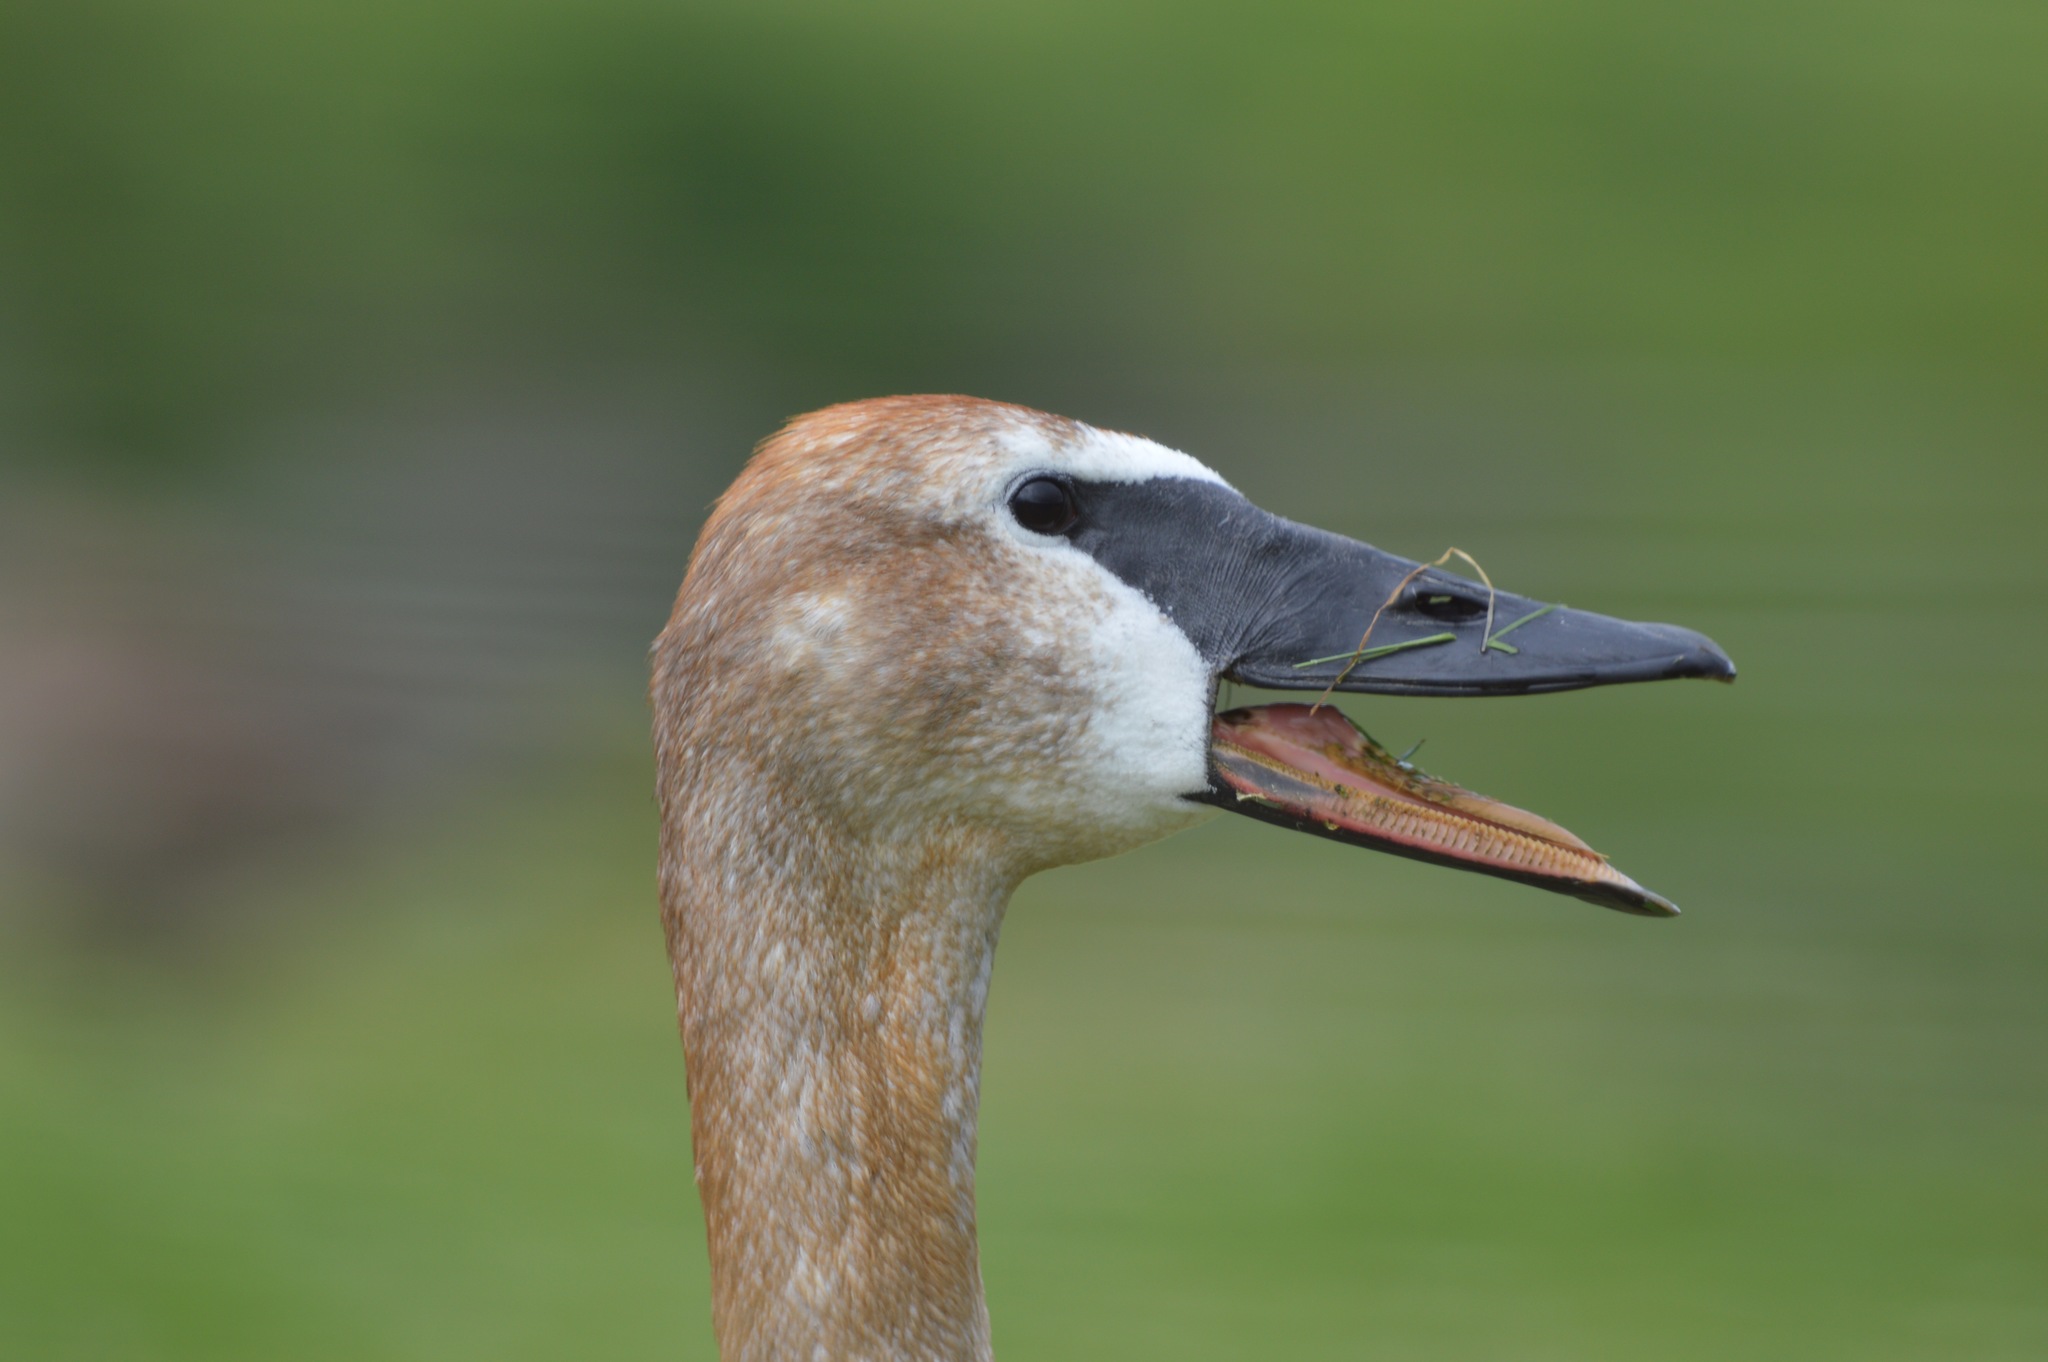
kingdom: Animalia
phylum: Chordata
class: Aves
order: Anseriformes
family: Anatidae
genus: Cygnus
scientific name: Cygnus buccinator
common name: Trumpeter swan
